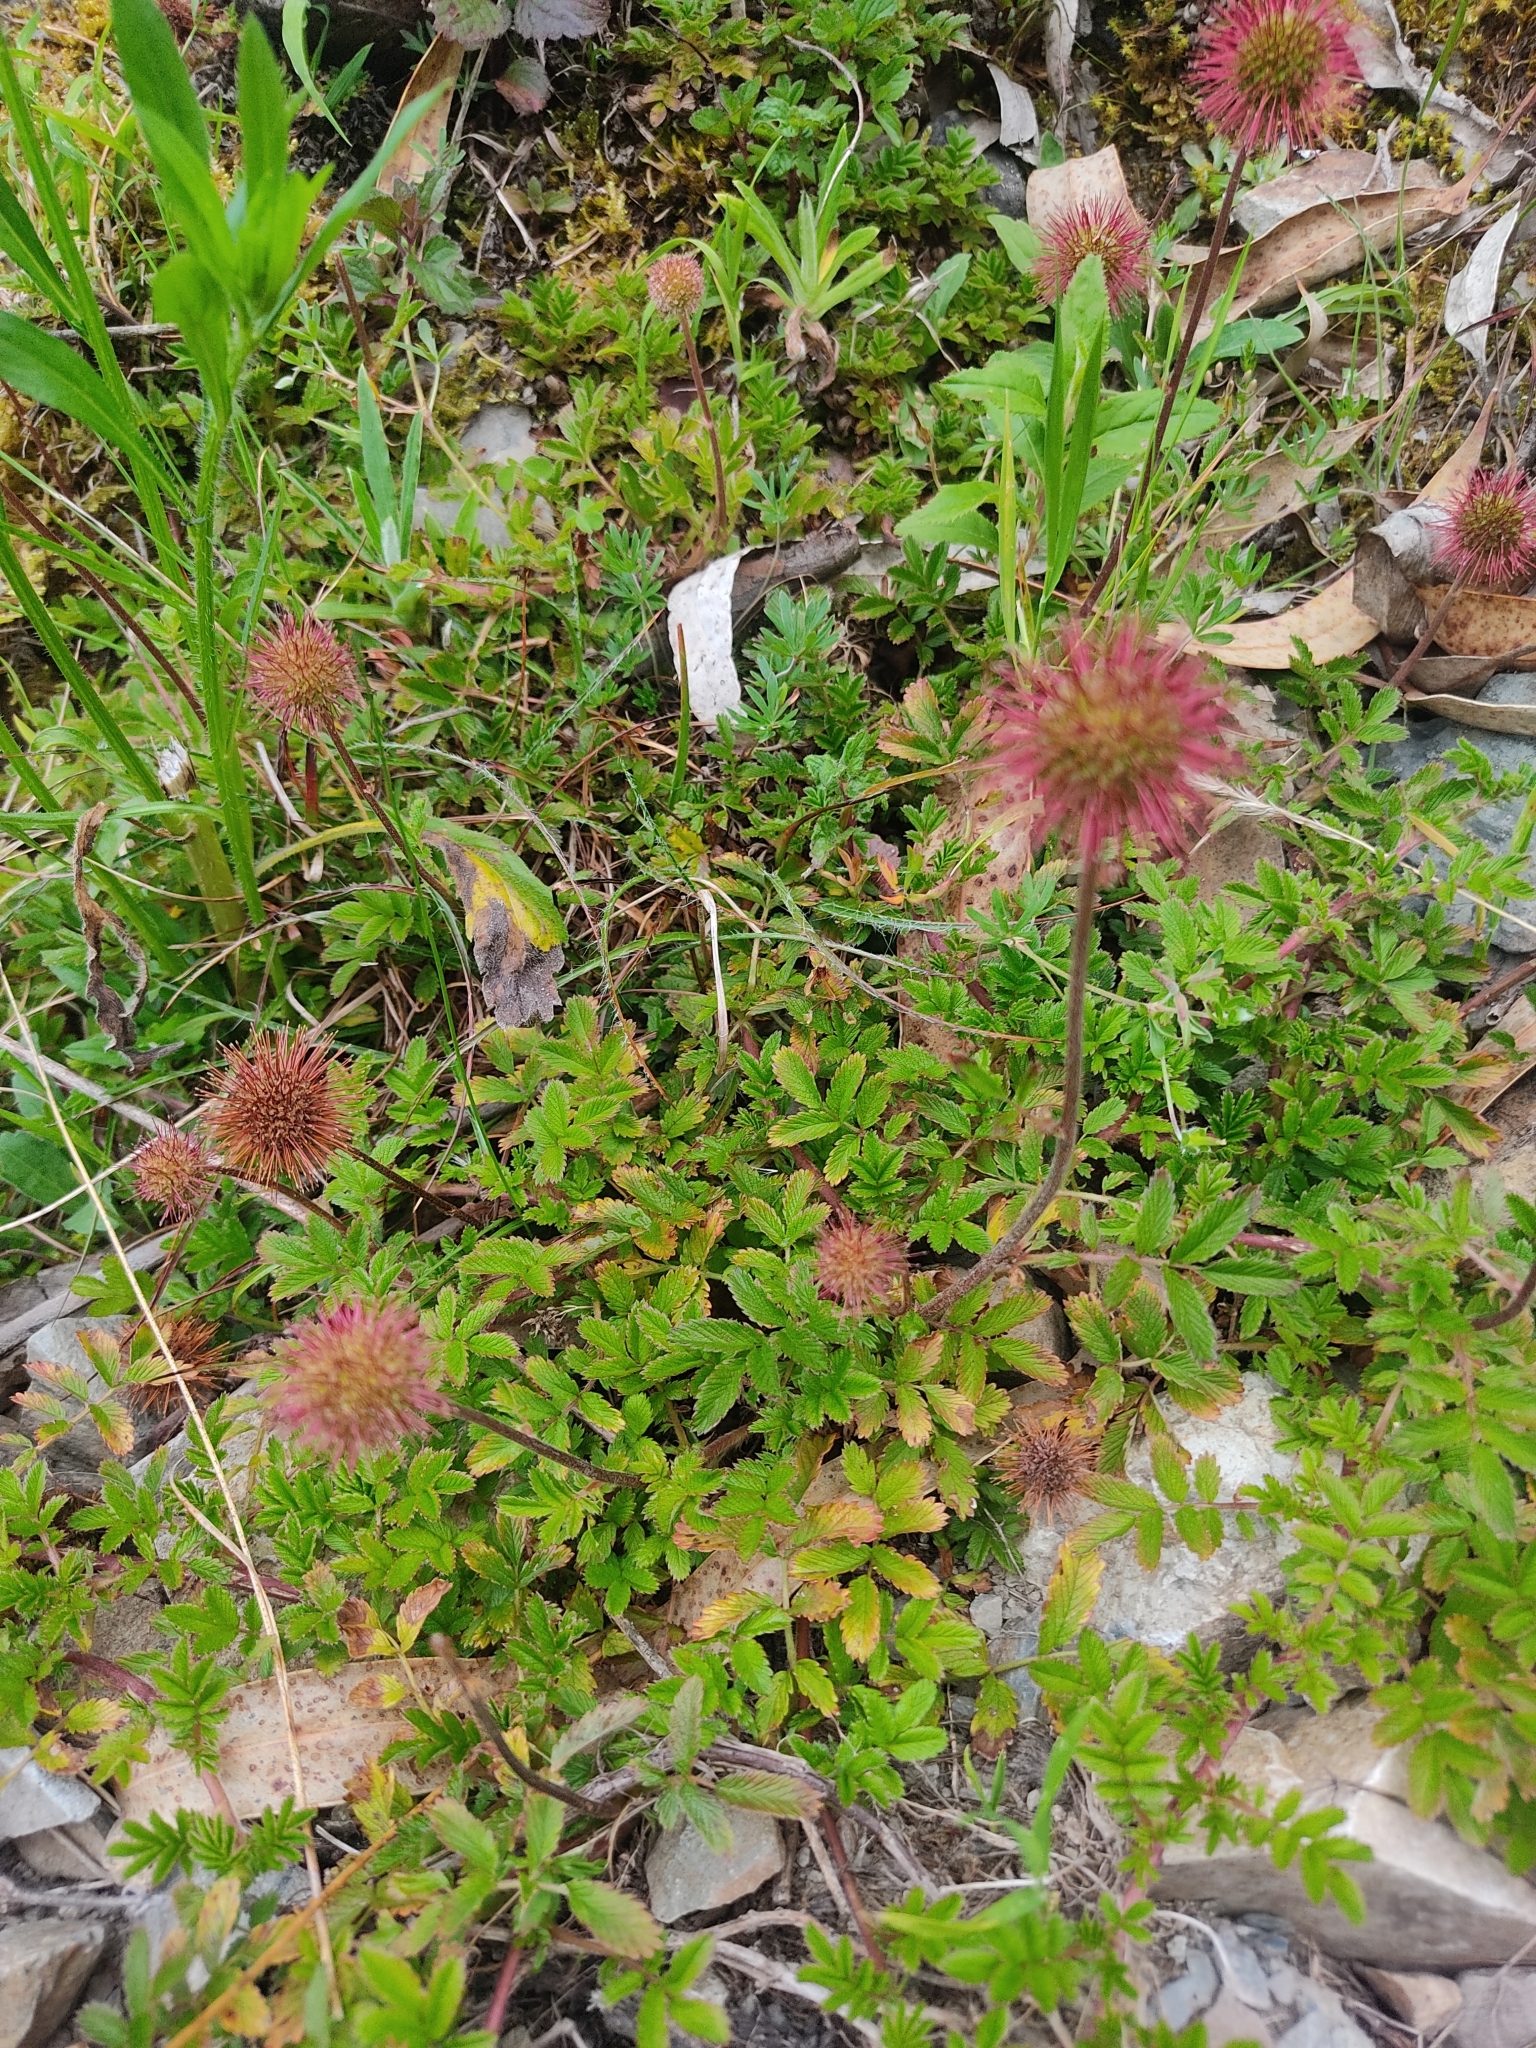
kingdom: Plantae
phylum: Tracheophyta
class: Magnoliopsida
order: Rosales
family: Rosaceae
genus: Acaena
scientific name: Acaena ovalifolia
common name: Two-spined acaena
